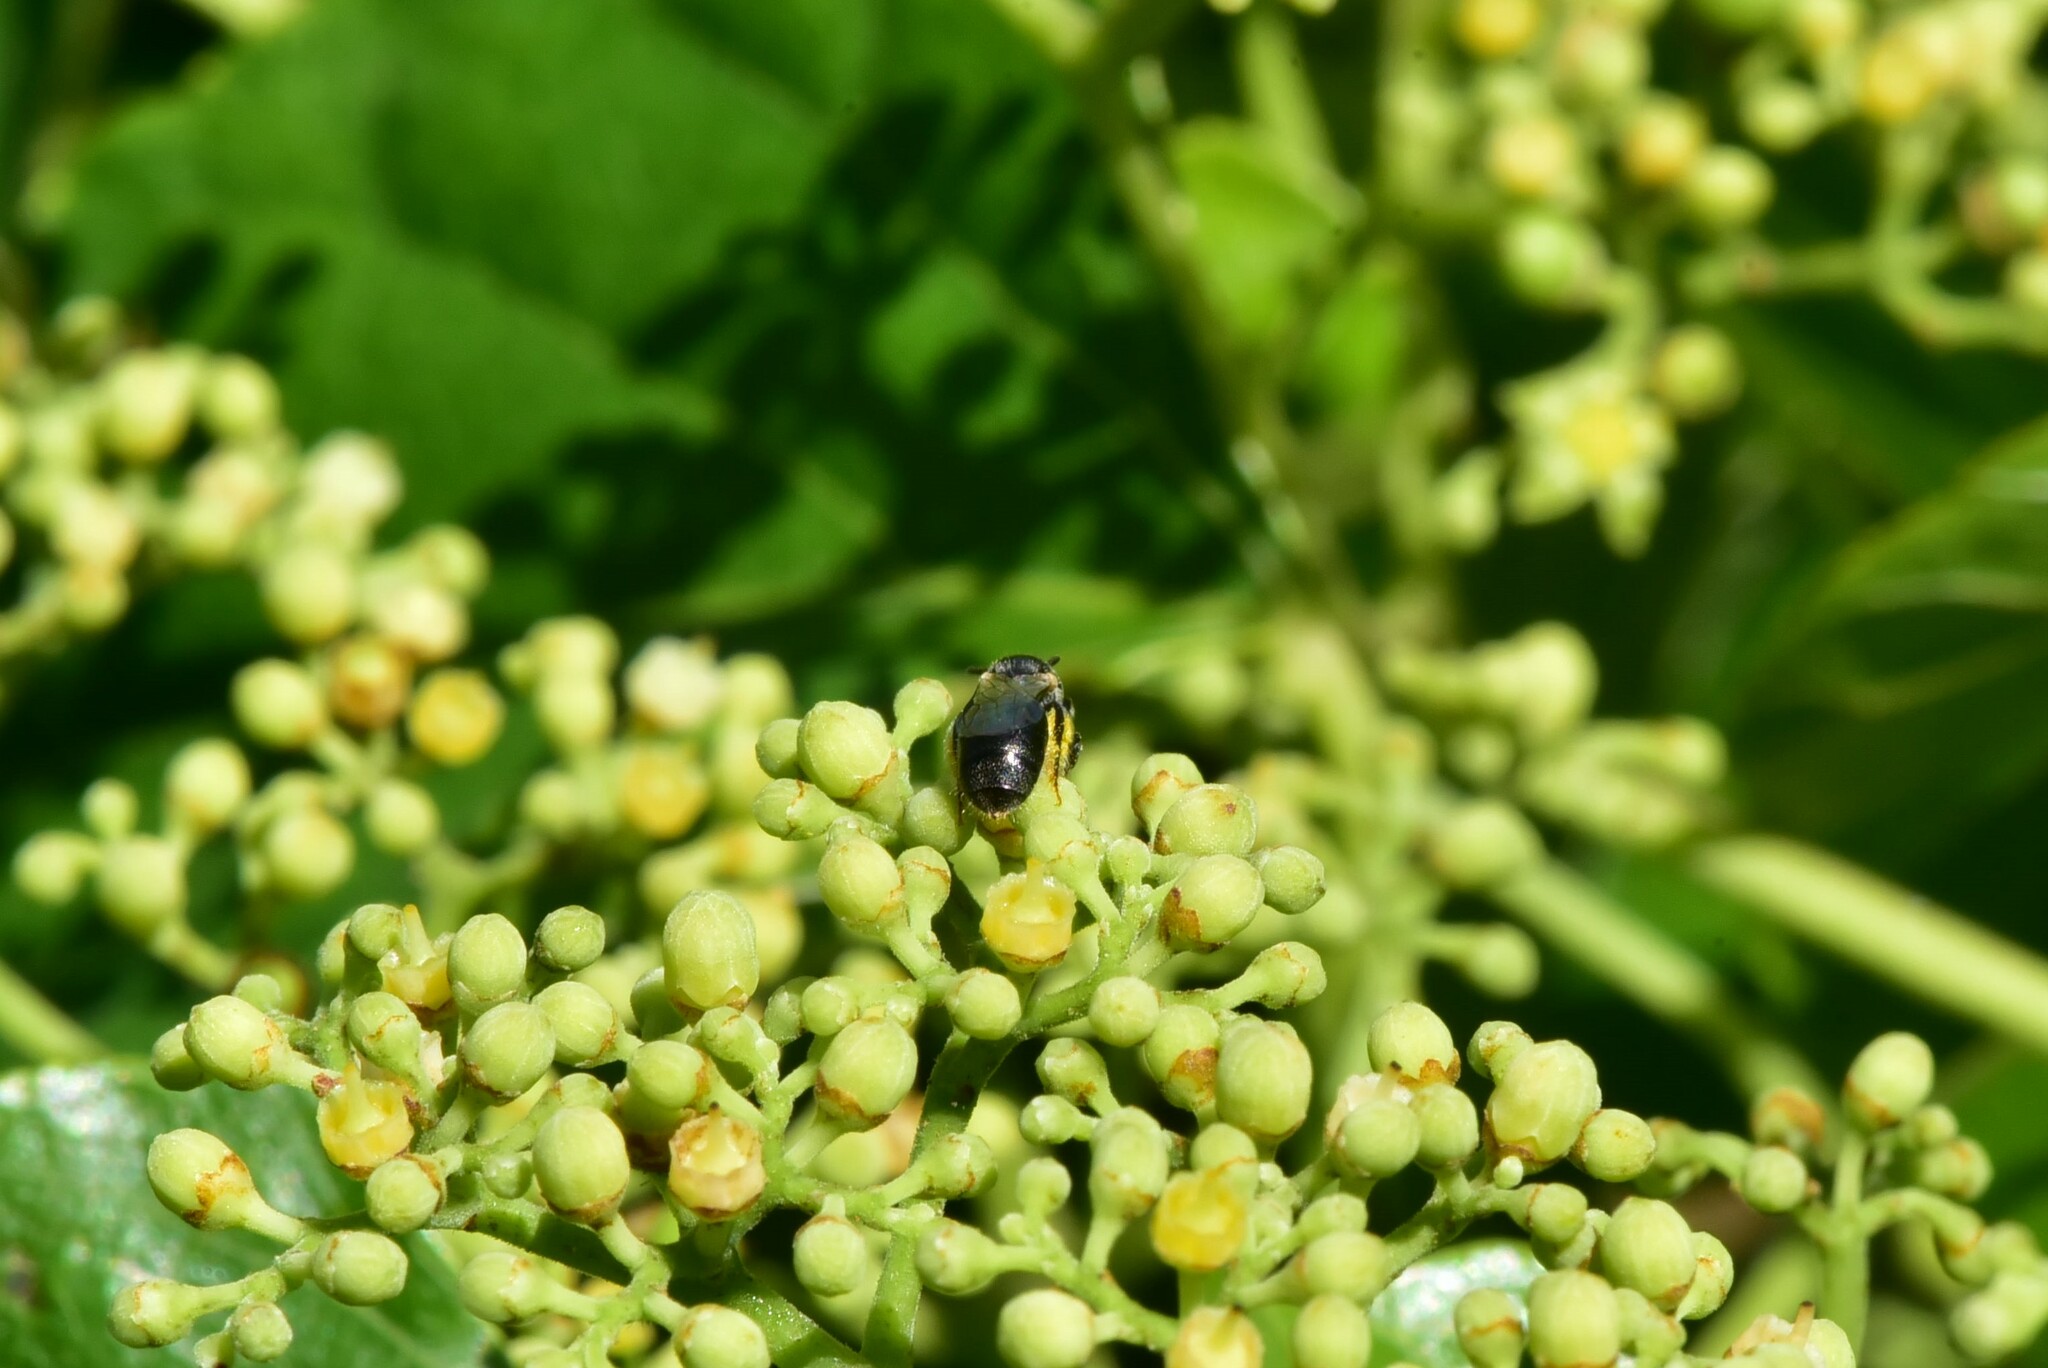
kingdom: Animalia
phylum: Arthropoda
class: Insecta
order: Hymenoptera
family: Apidae
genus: Braunsapis
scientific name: Braunsapis hewitti
